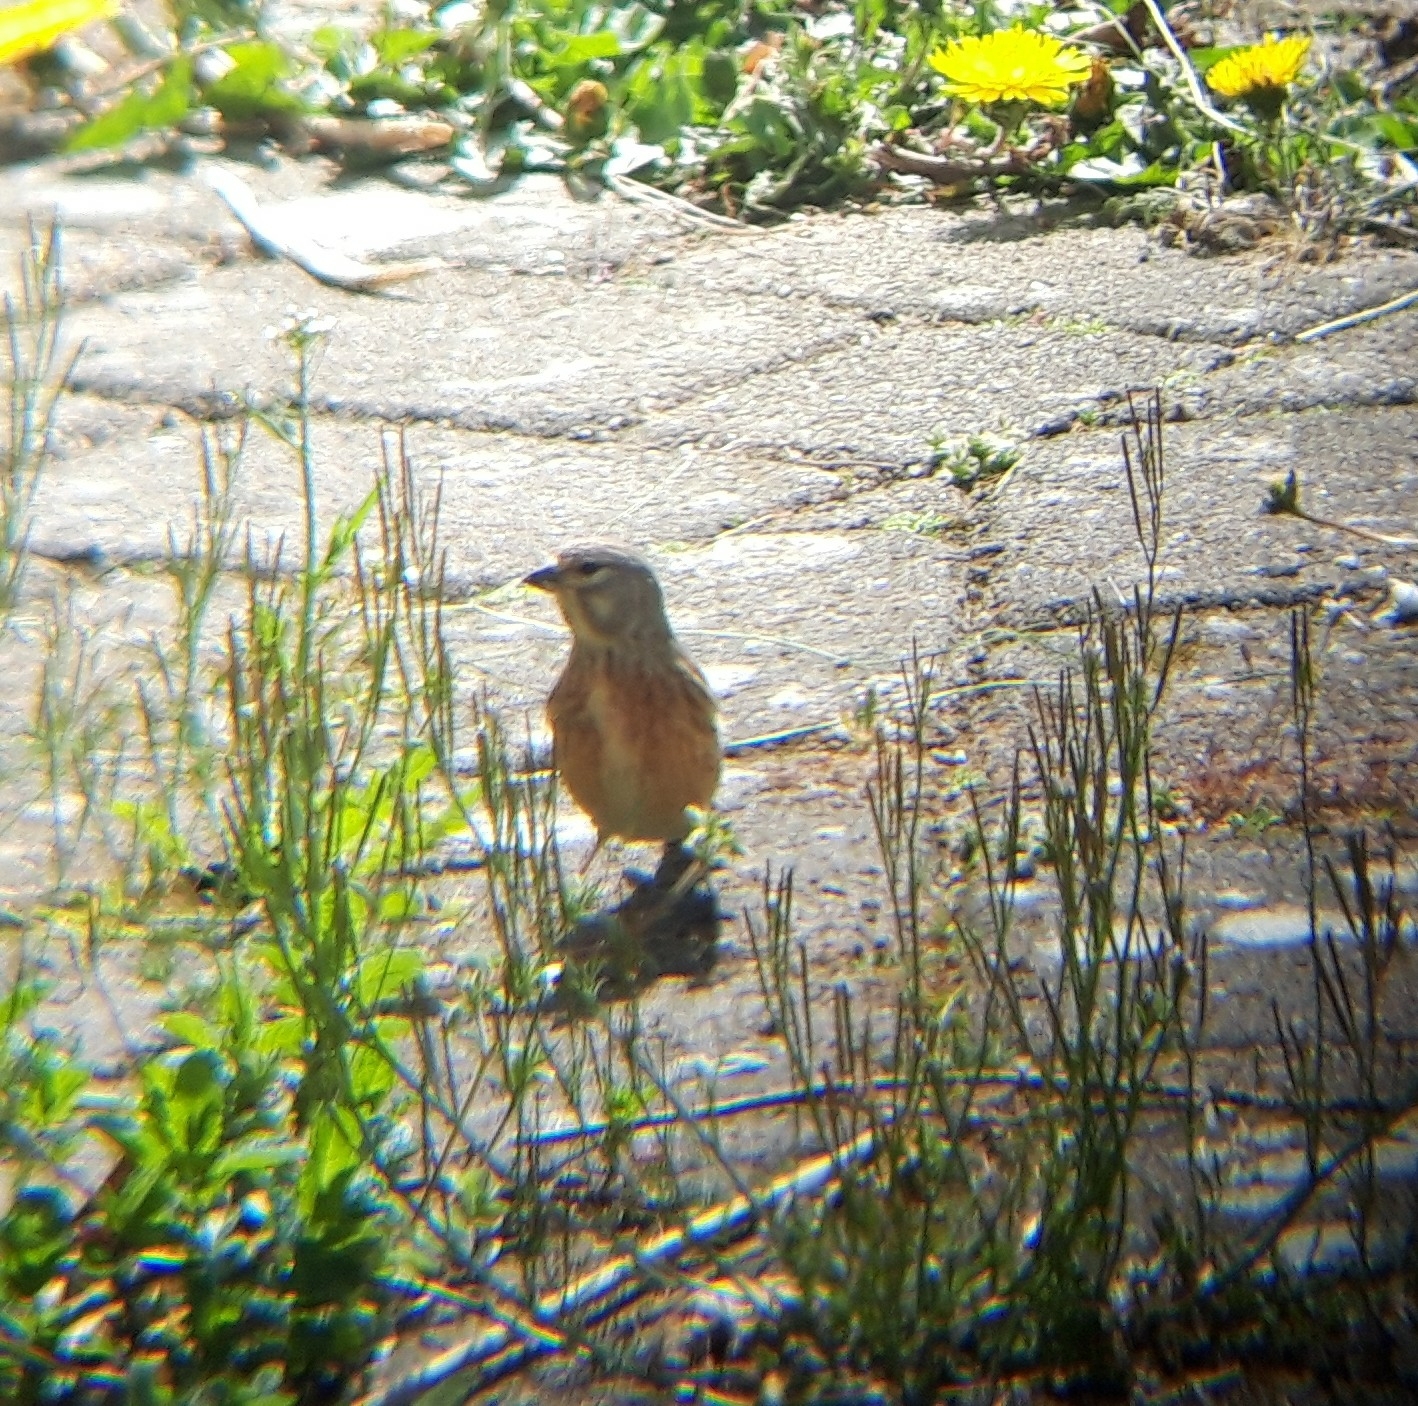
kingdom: Animalia
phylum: Chordata
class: Aves
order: Passeriformes
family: Fringillidae
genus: Linaria
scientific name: Linaria cannabina
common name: Common linnet
